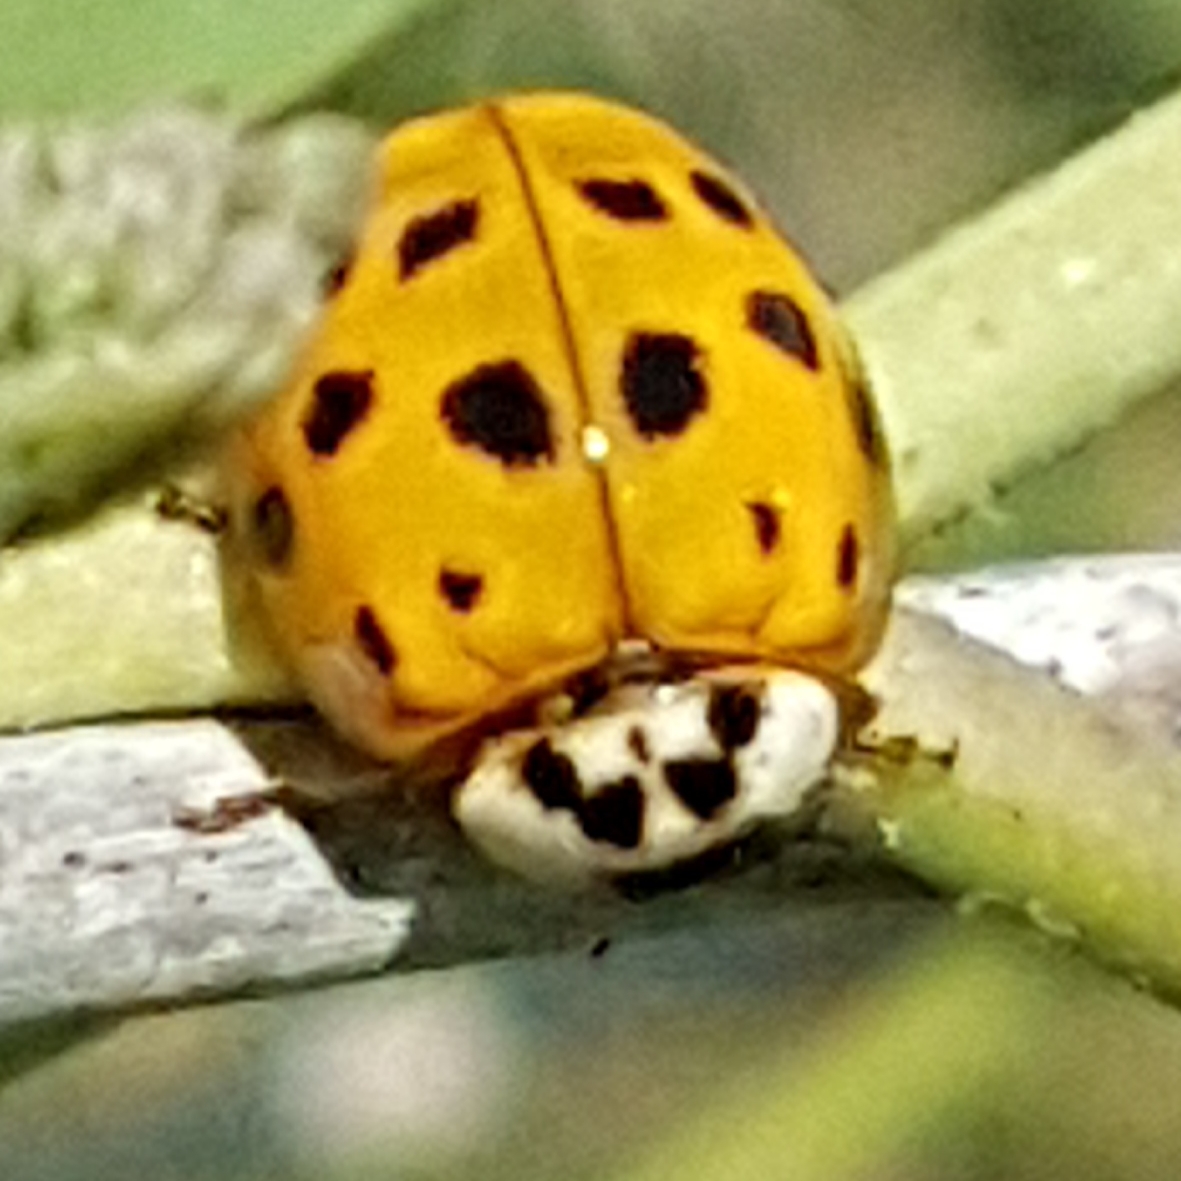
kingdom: Animalia
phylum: Arthropoda
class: Insecta
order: Coleoptera
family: Coccinellidae
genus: Harmonia
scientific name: Harmonia axyridis
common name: Harlequin ladybird
